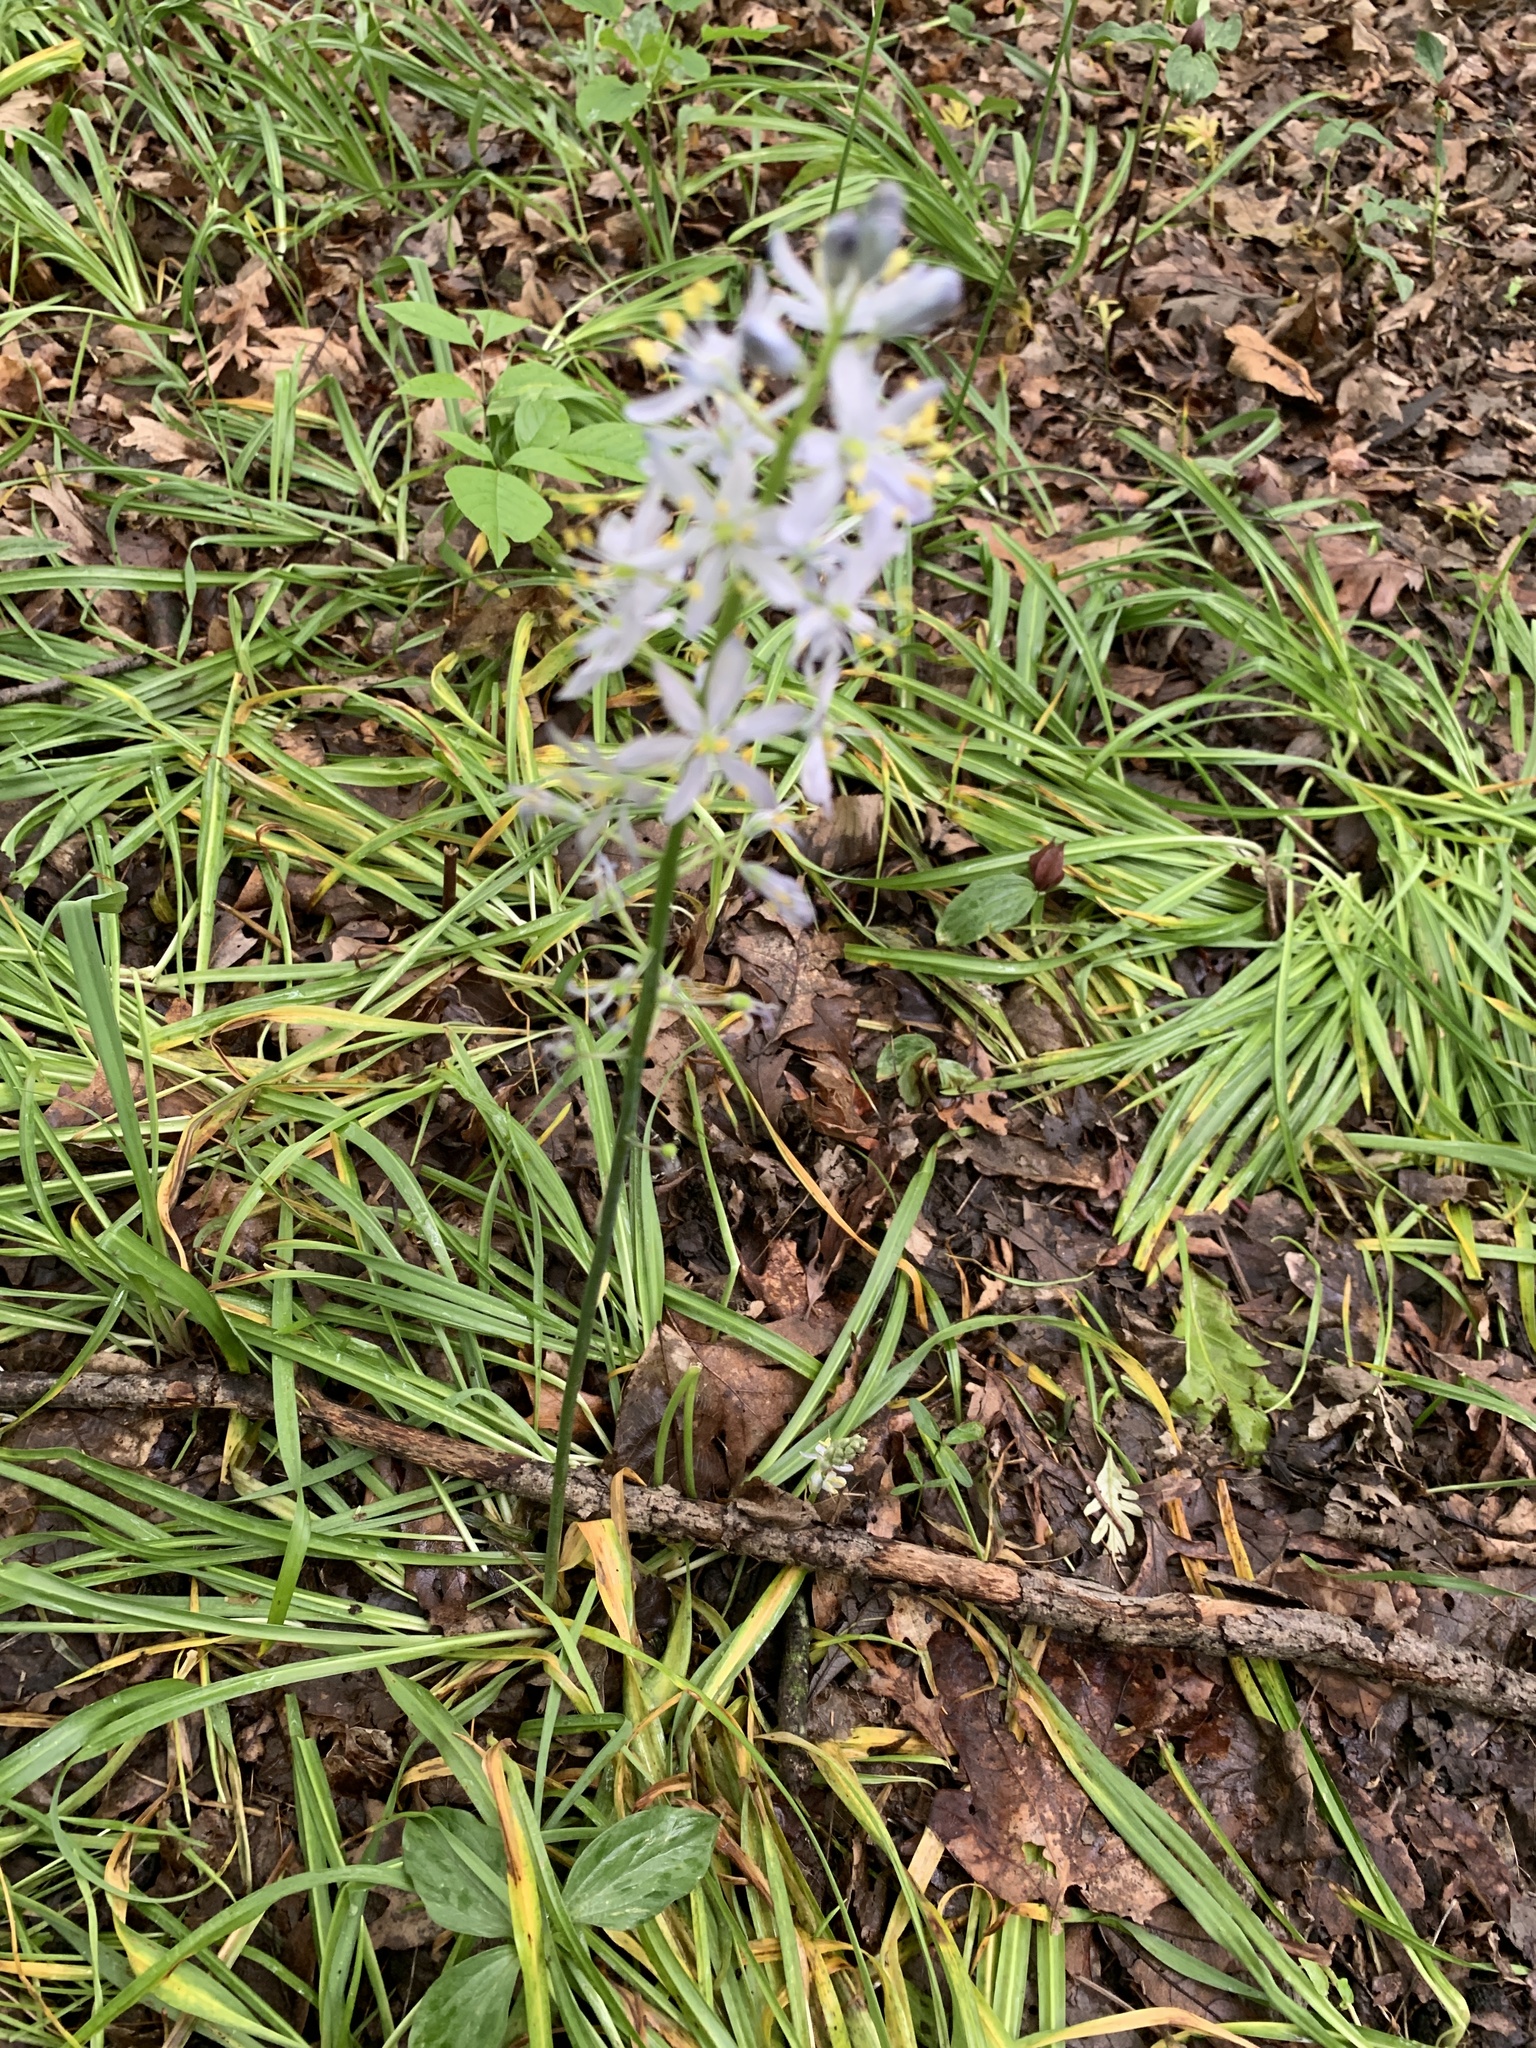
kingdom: Plantae
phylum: Tracheophyta
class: Liliopsida
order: Asparagales
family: Asparagaceae
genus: Camassia
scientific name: Camassia scilloides
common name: Wild hyacinth
